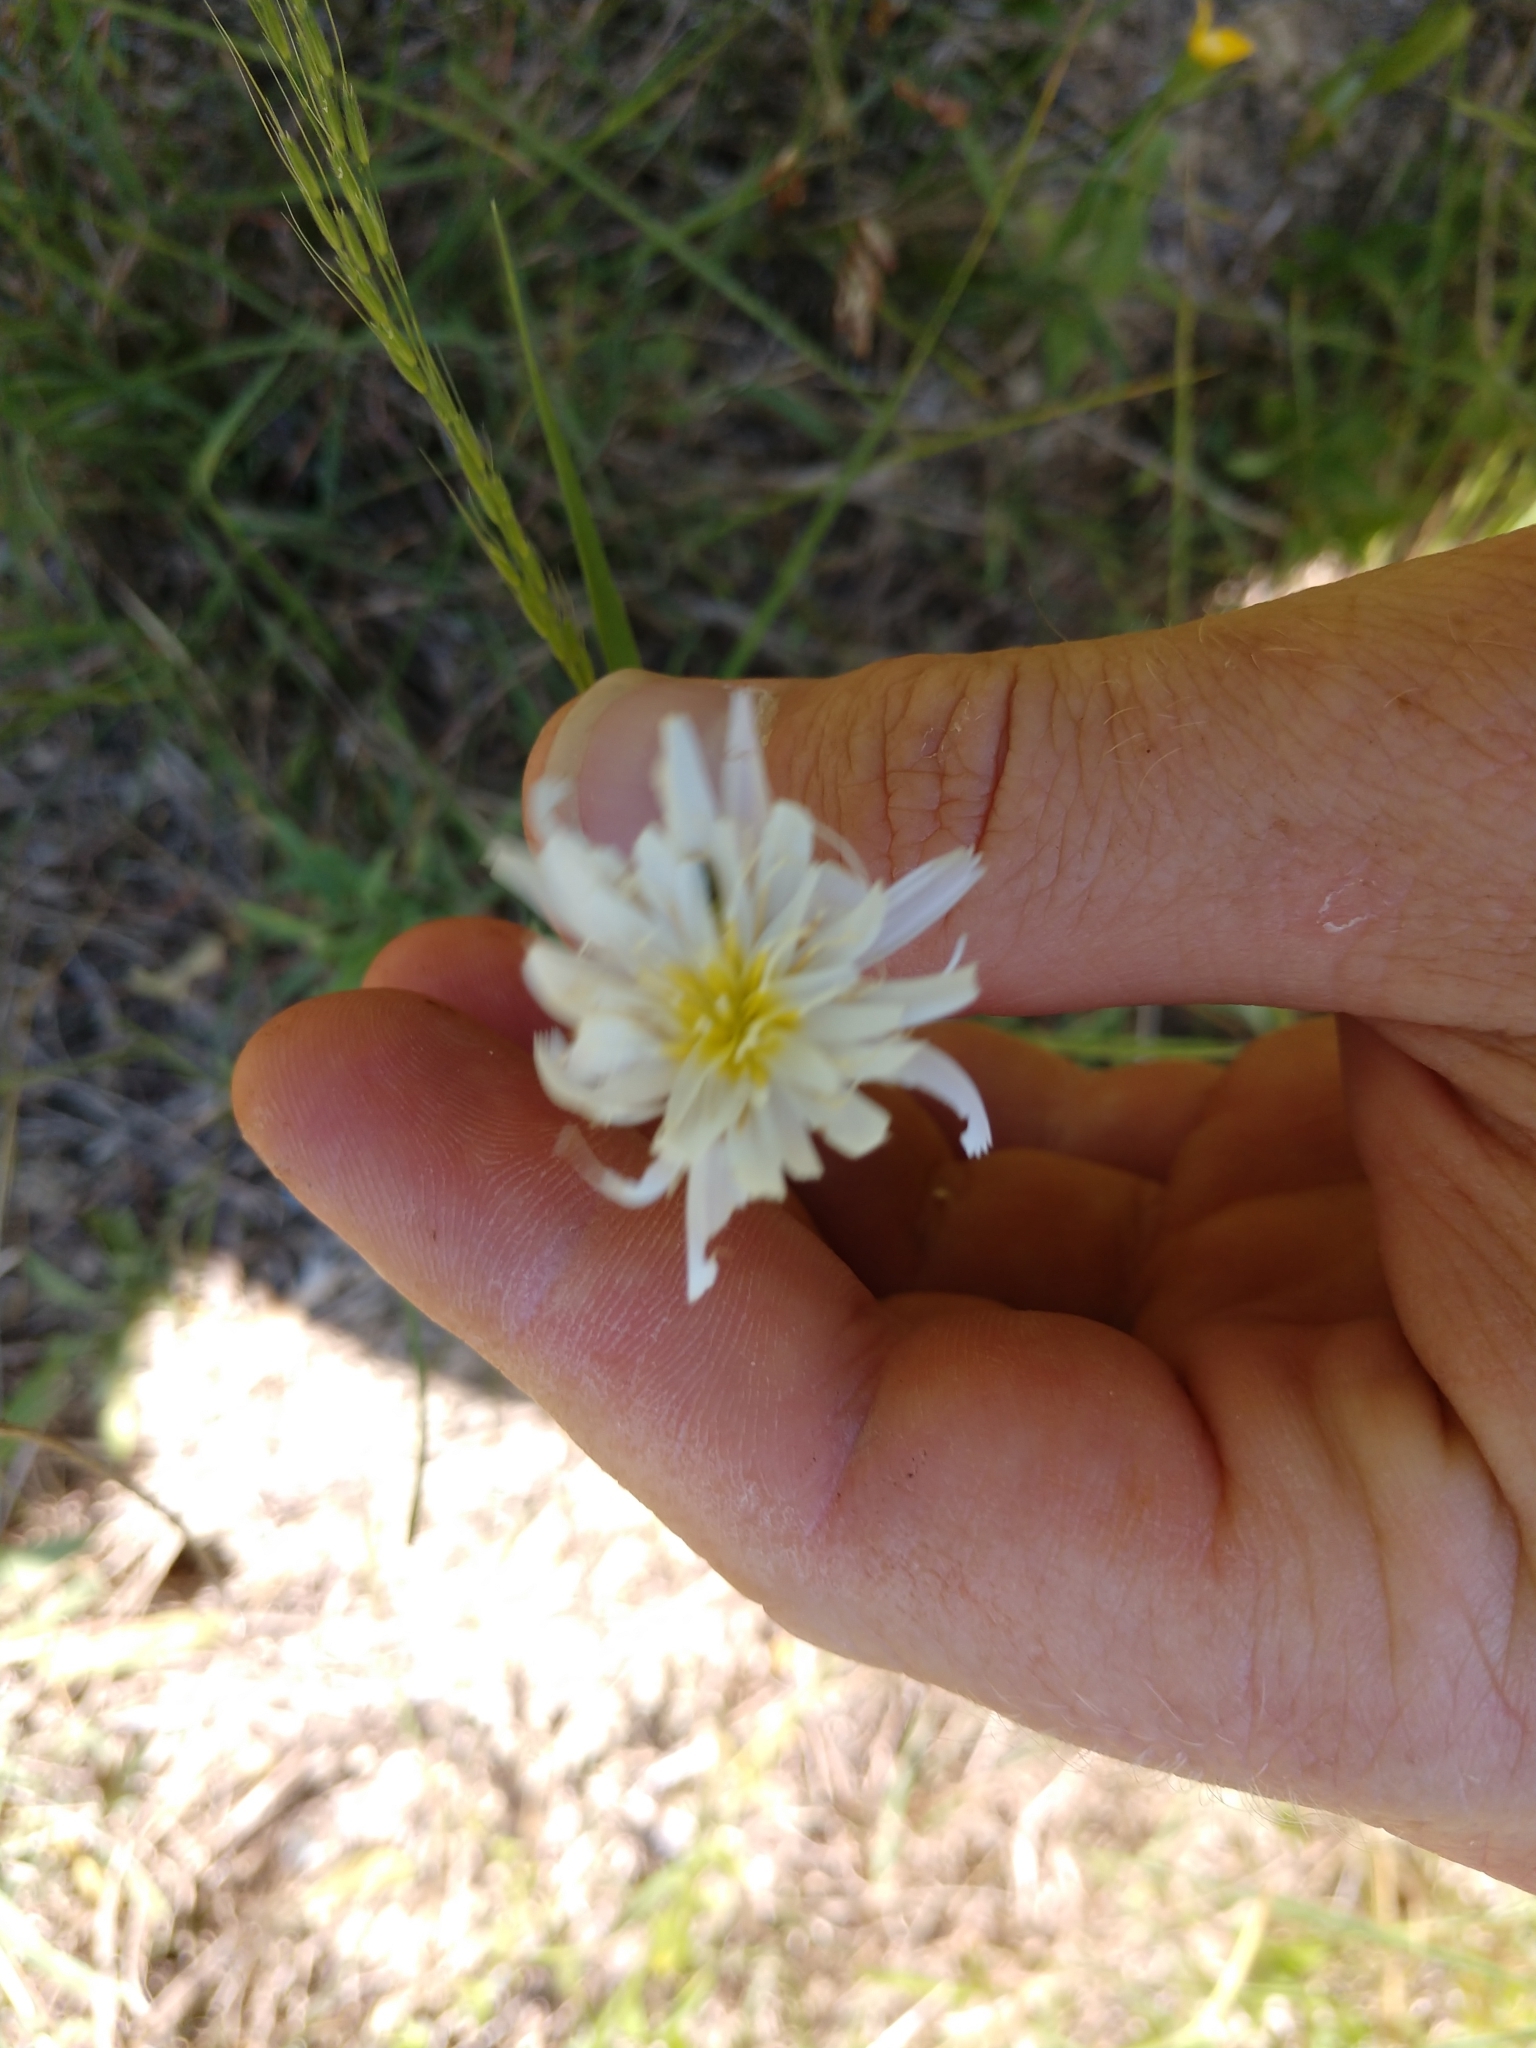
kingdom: Plantae
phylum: Tracheophyta
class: Magnoliopsida
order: Asterales
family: Asteraceae
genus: Pinaropappus
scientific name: Pinaropappus roseus
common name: Rock-lettuce
